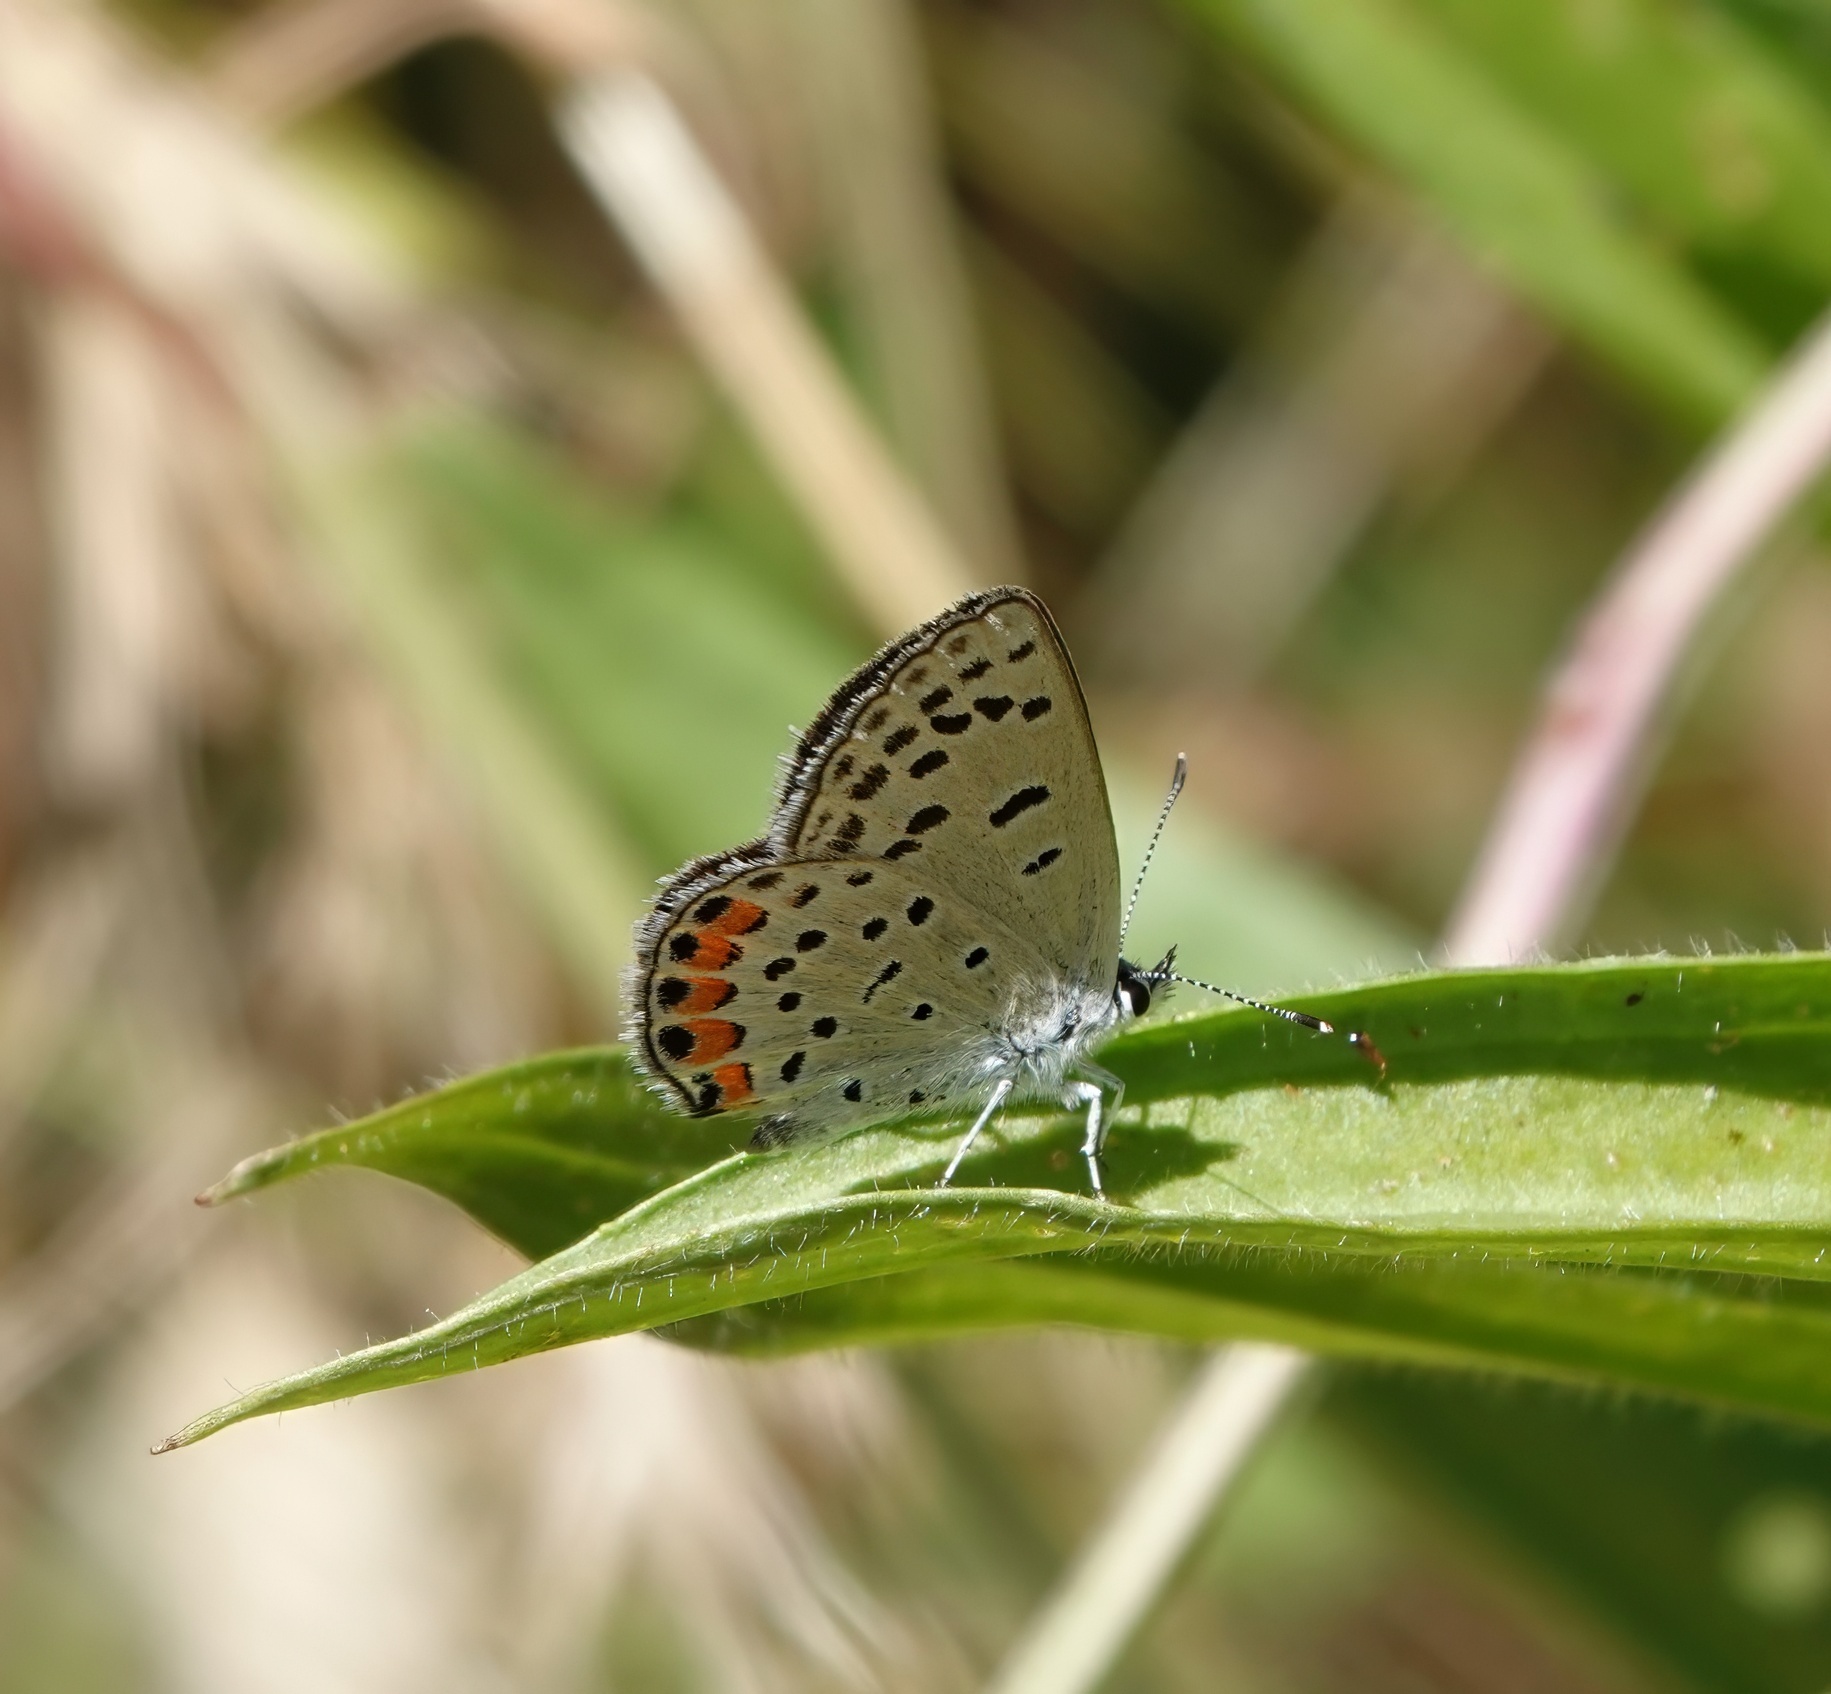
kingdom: Animalia
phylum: Arthropoda
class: Insecta
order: Lepidoptera
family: Lycaenidae
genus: Icaricia
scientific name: Icaricia acmon
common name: Acmon blue
